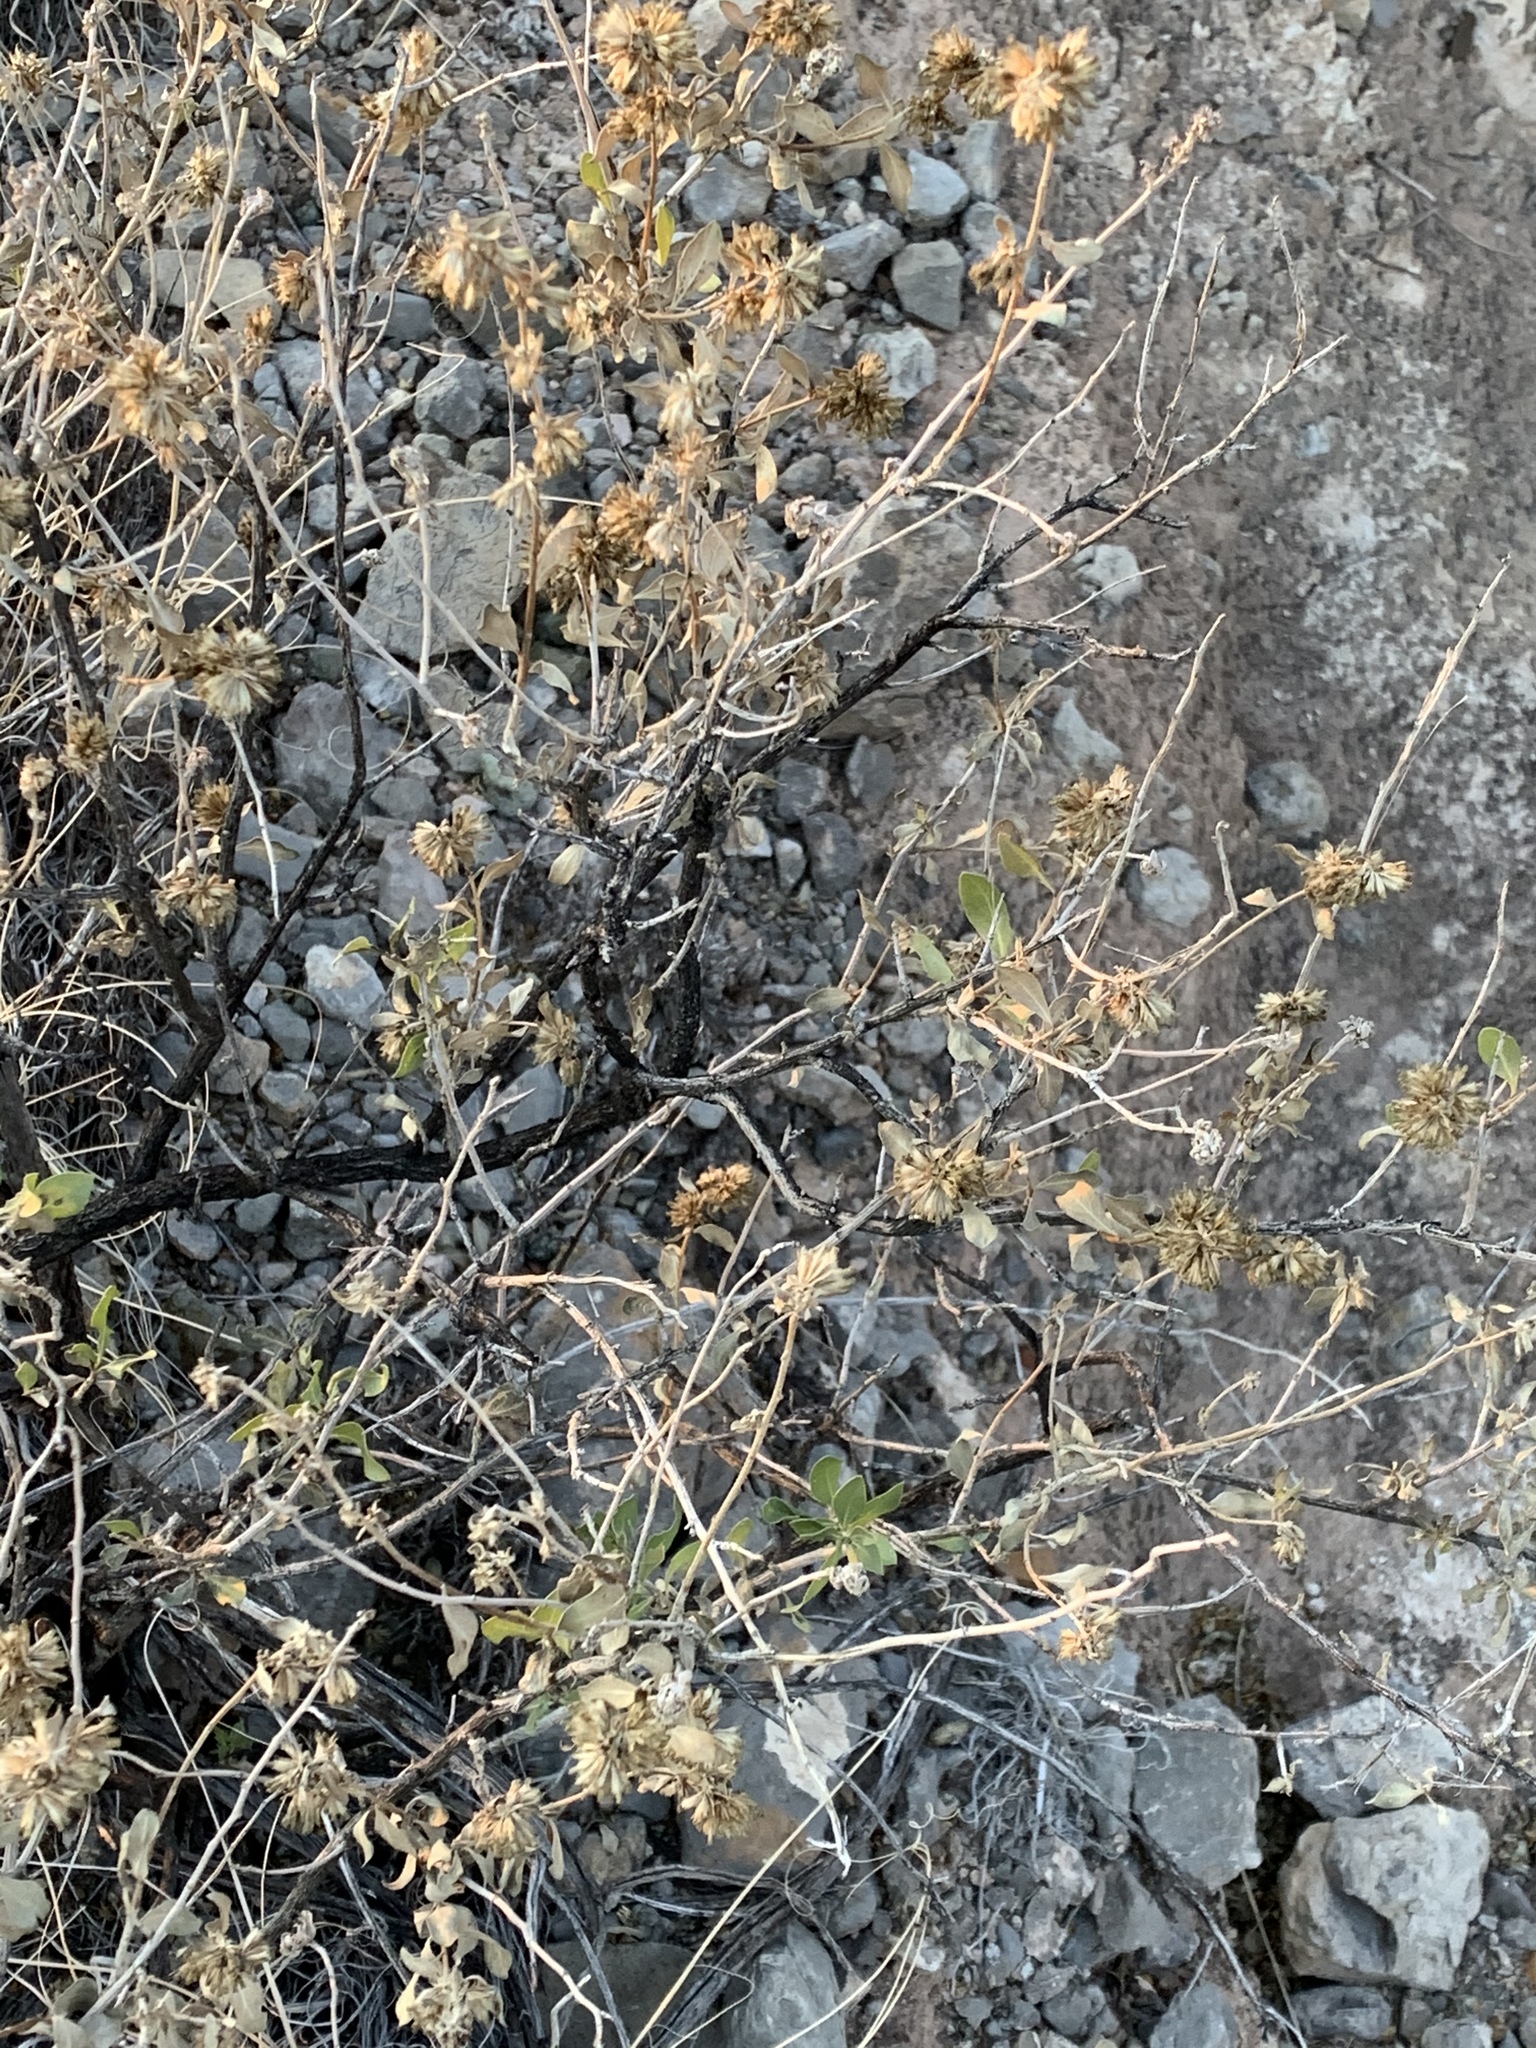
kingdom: Plantae
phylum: Tracheophyta
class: Magnoliopsida
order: Asterales
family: Asteraceae
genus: Flourensia
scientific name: Flourensia cernua
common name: Varnishbush
